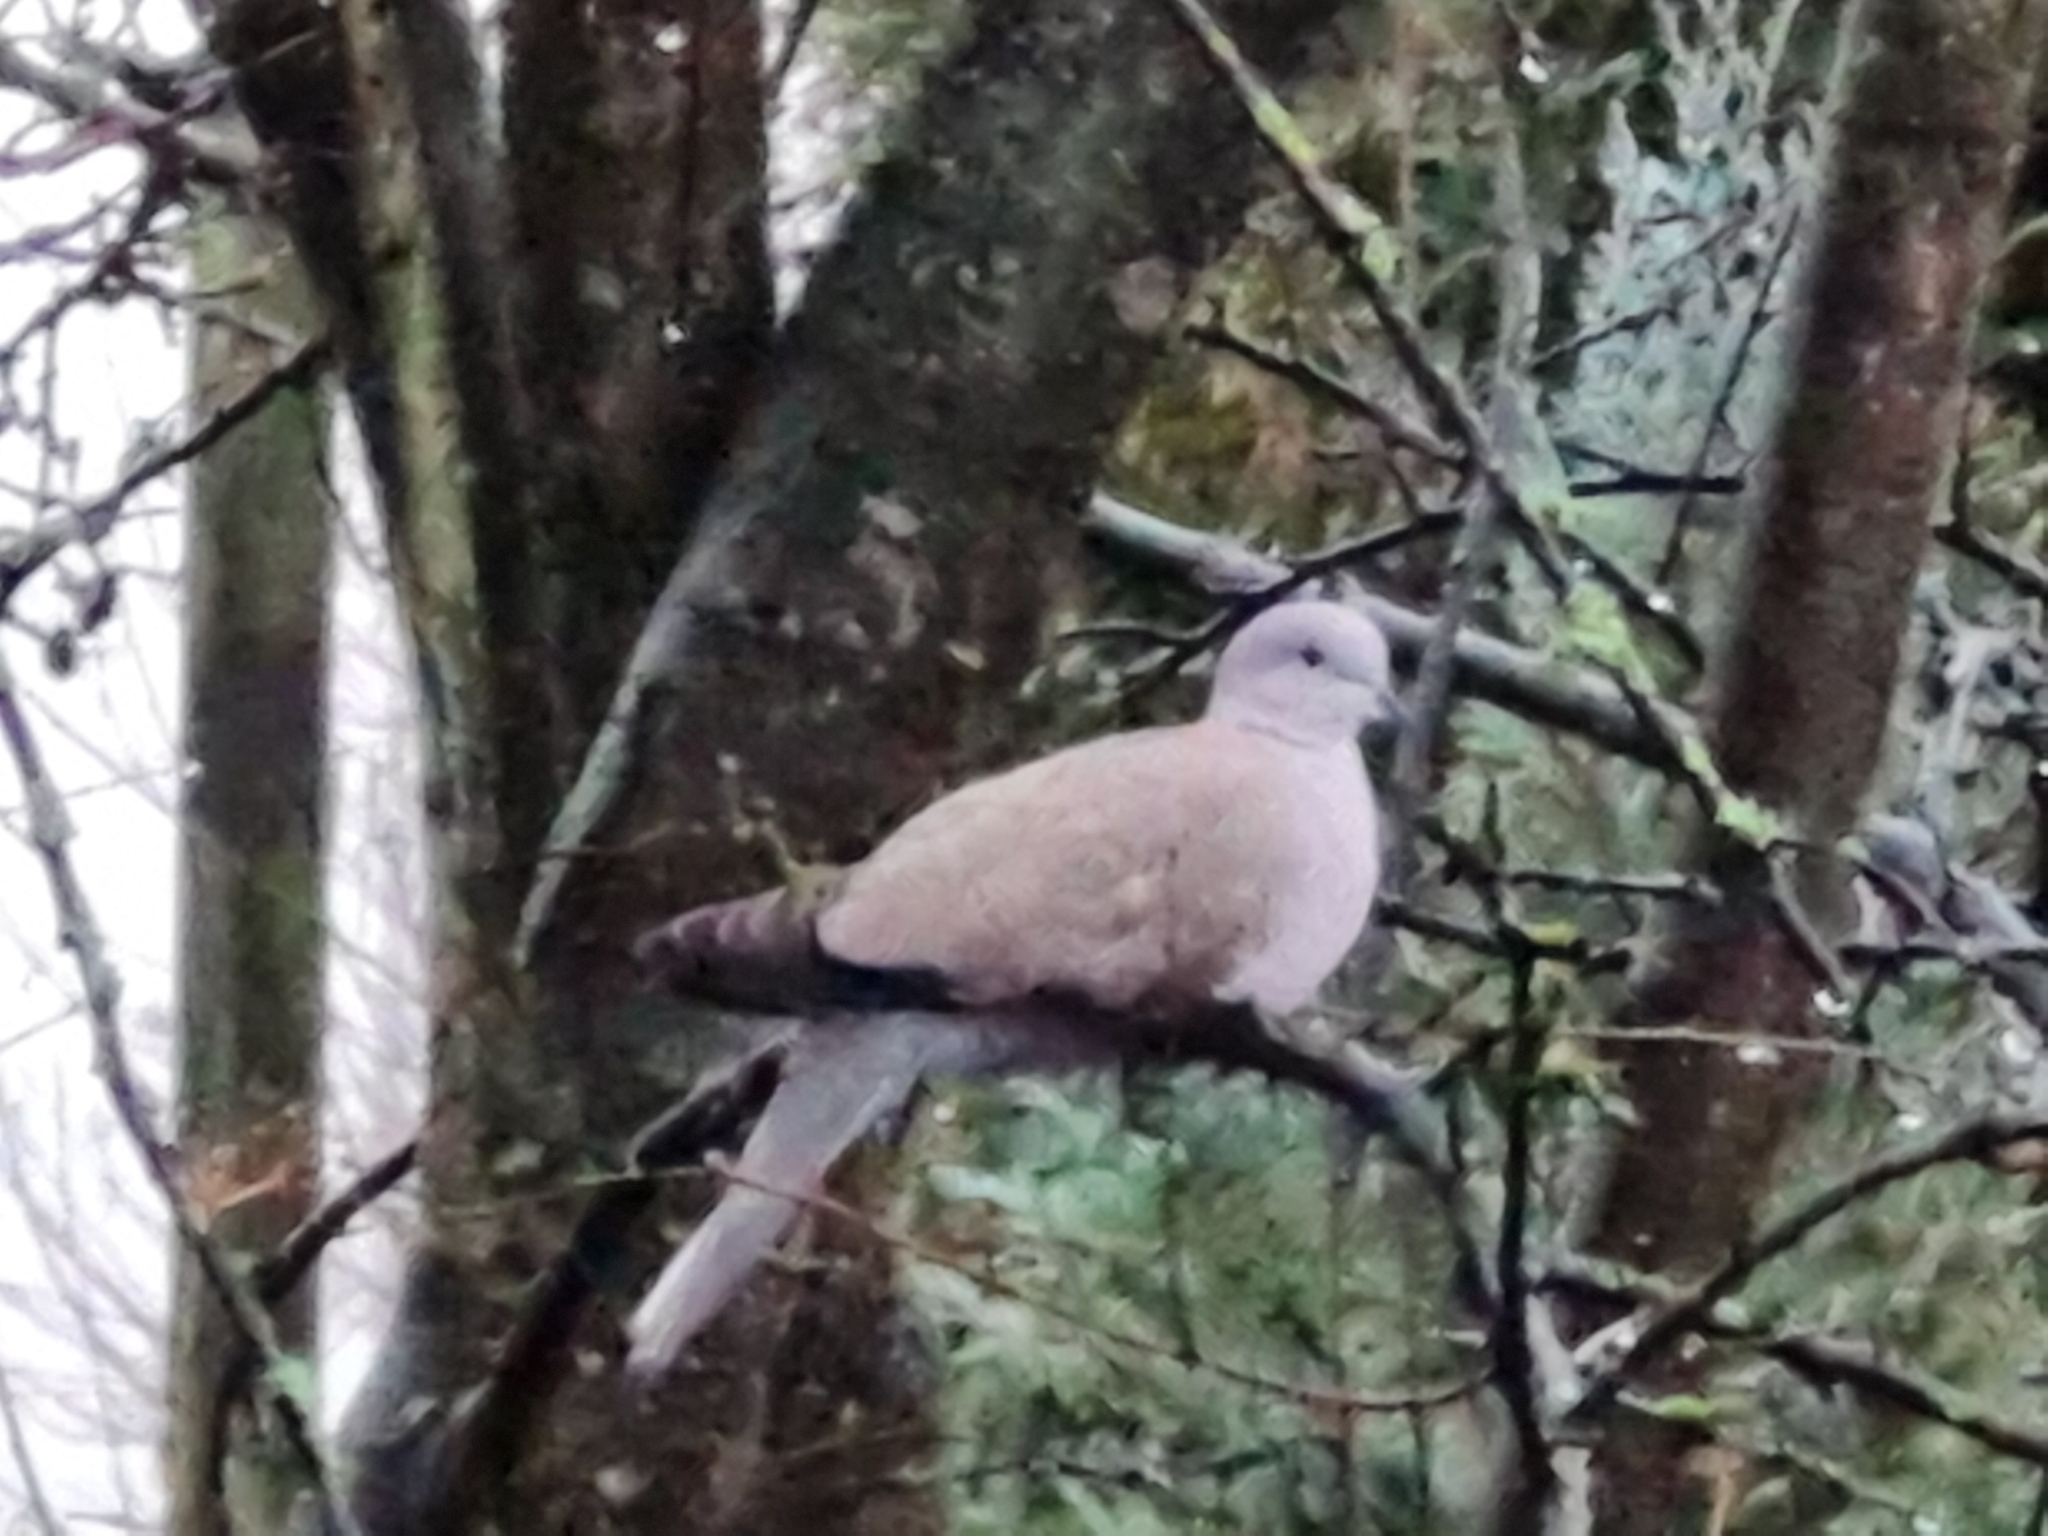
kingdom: Animalia
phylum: Chordata
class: Aves
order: Columbiformes
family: Columbidae
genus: Streptopelia
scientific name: Streptopelia decaocto
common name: Eurasian collared dove
